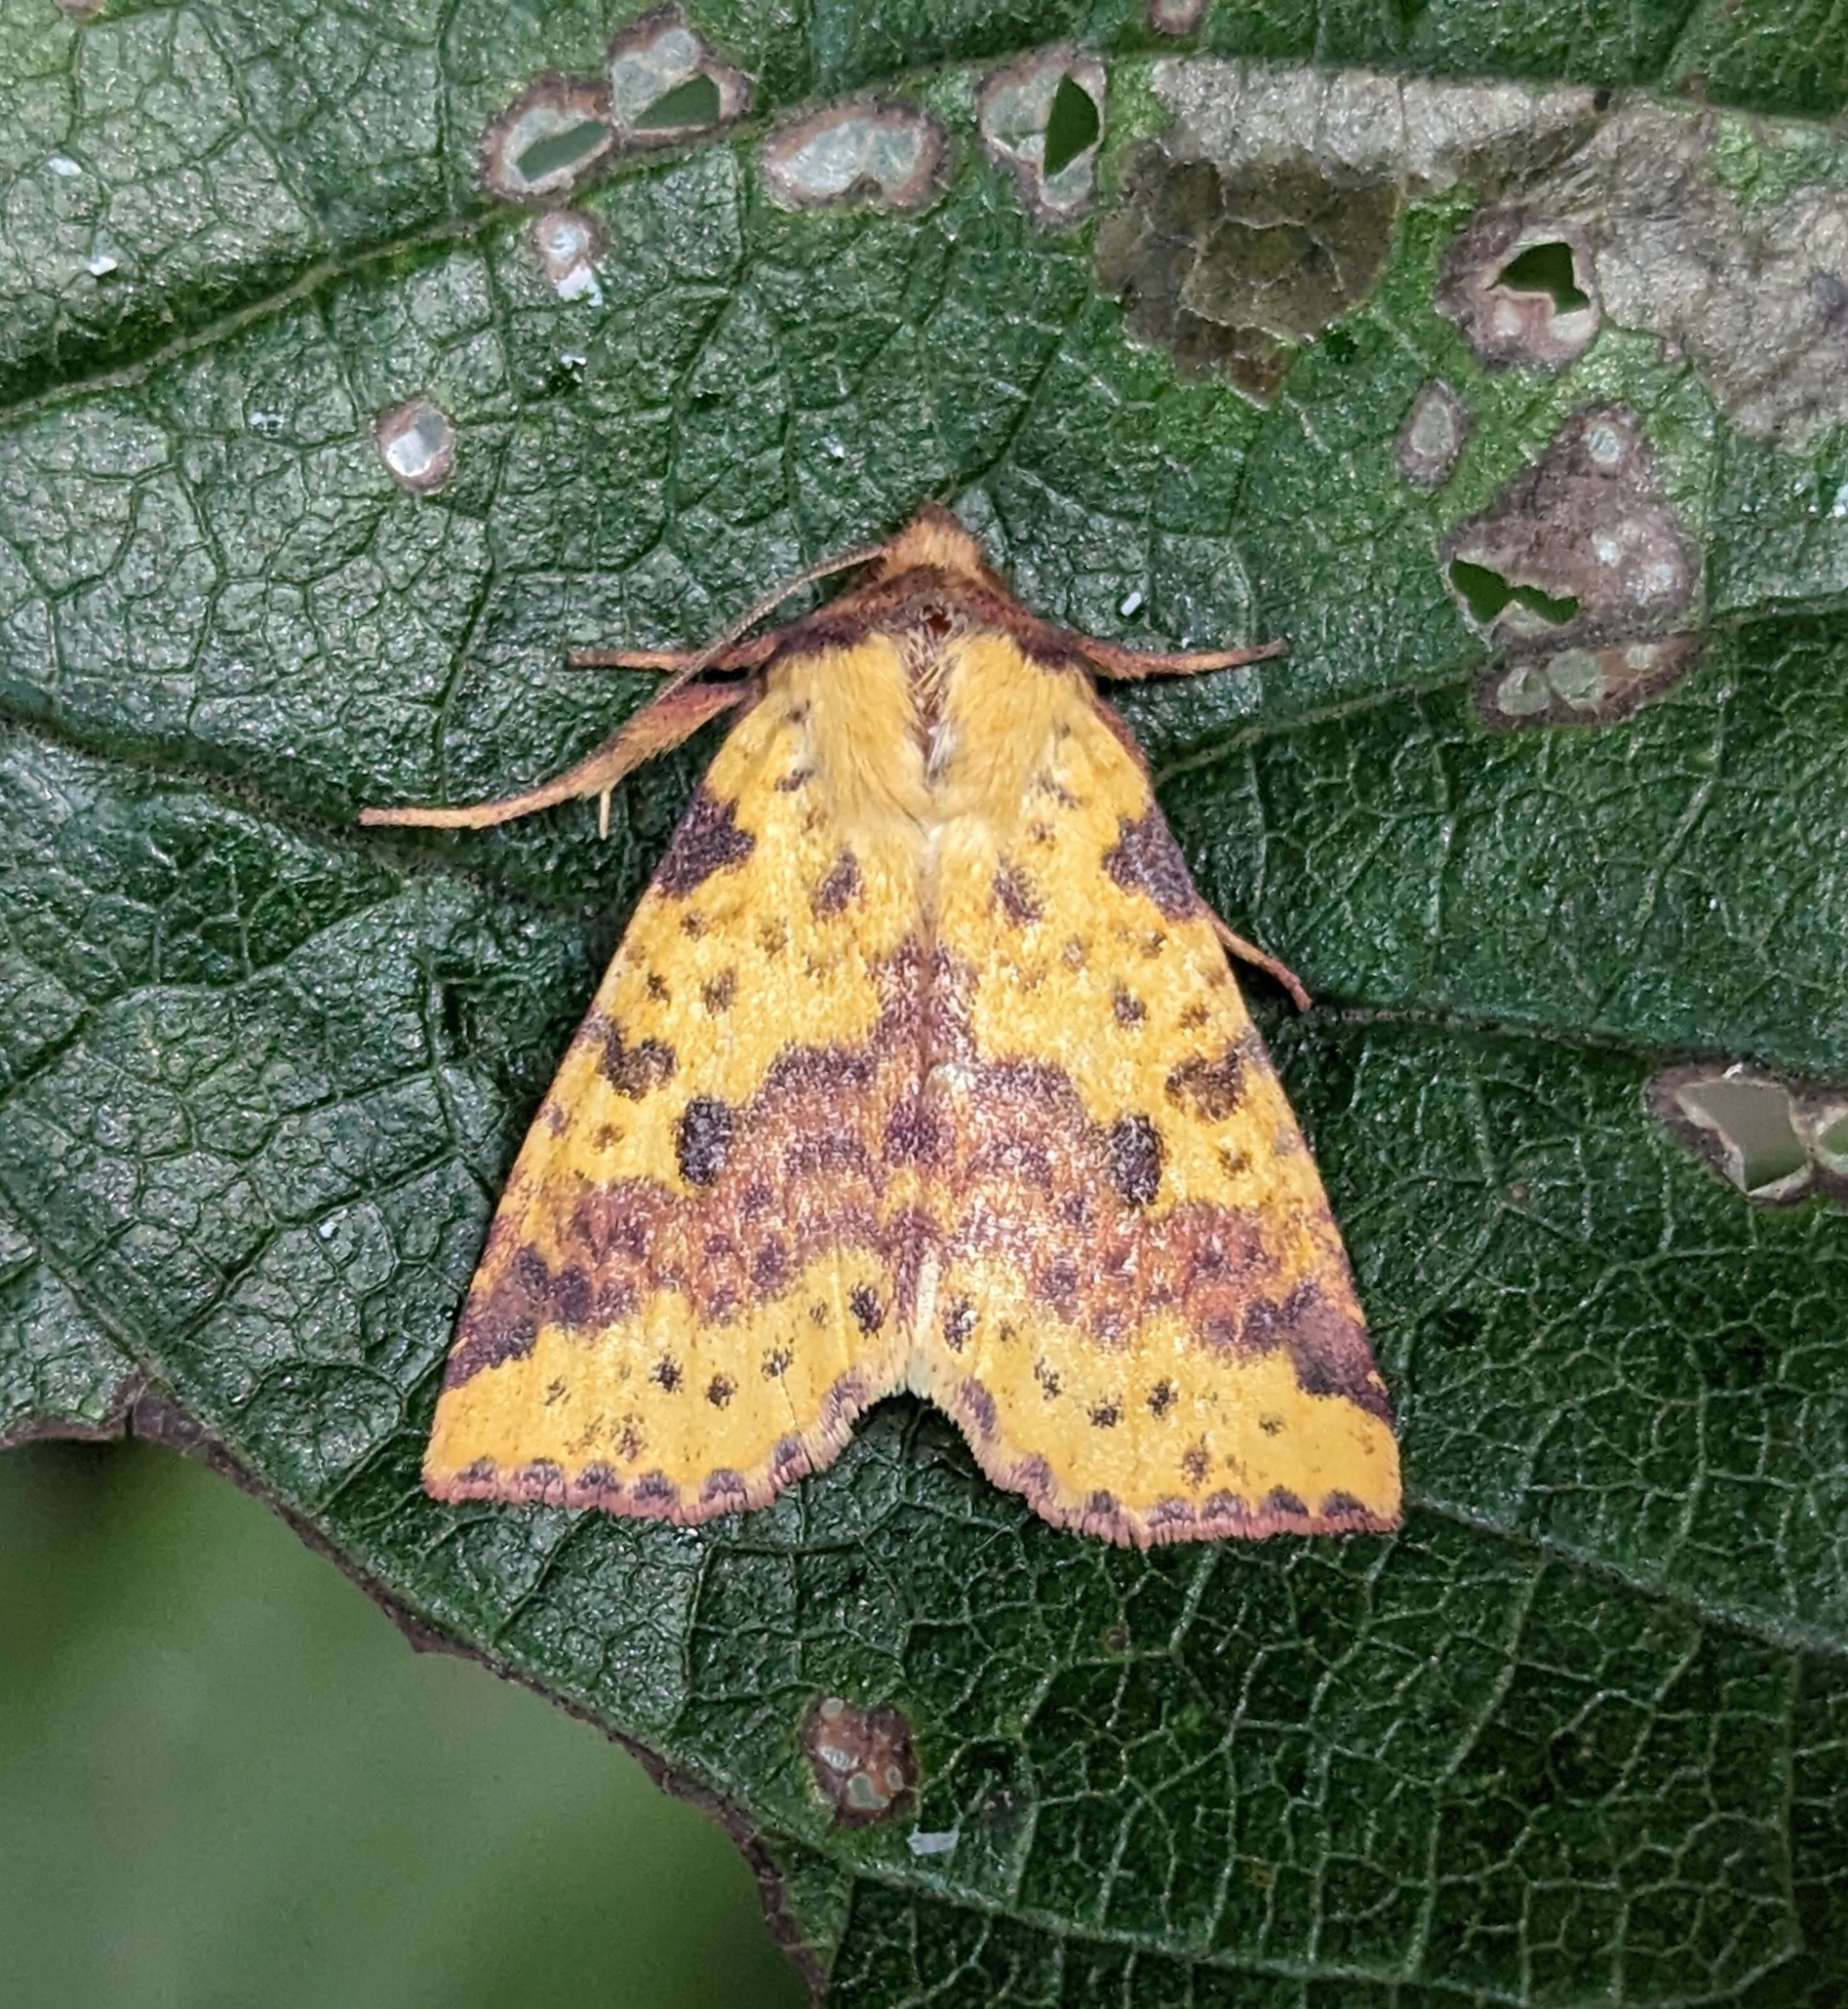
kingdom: Animalia
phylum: Arthropoda
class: Insecta
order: Lepidoptera
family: Noctuidae
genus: Xanthia
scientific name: Xanthia tatago
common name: Pink-banded sallow
